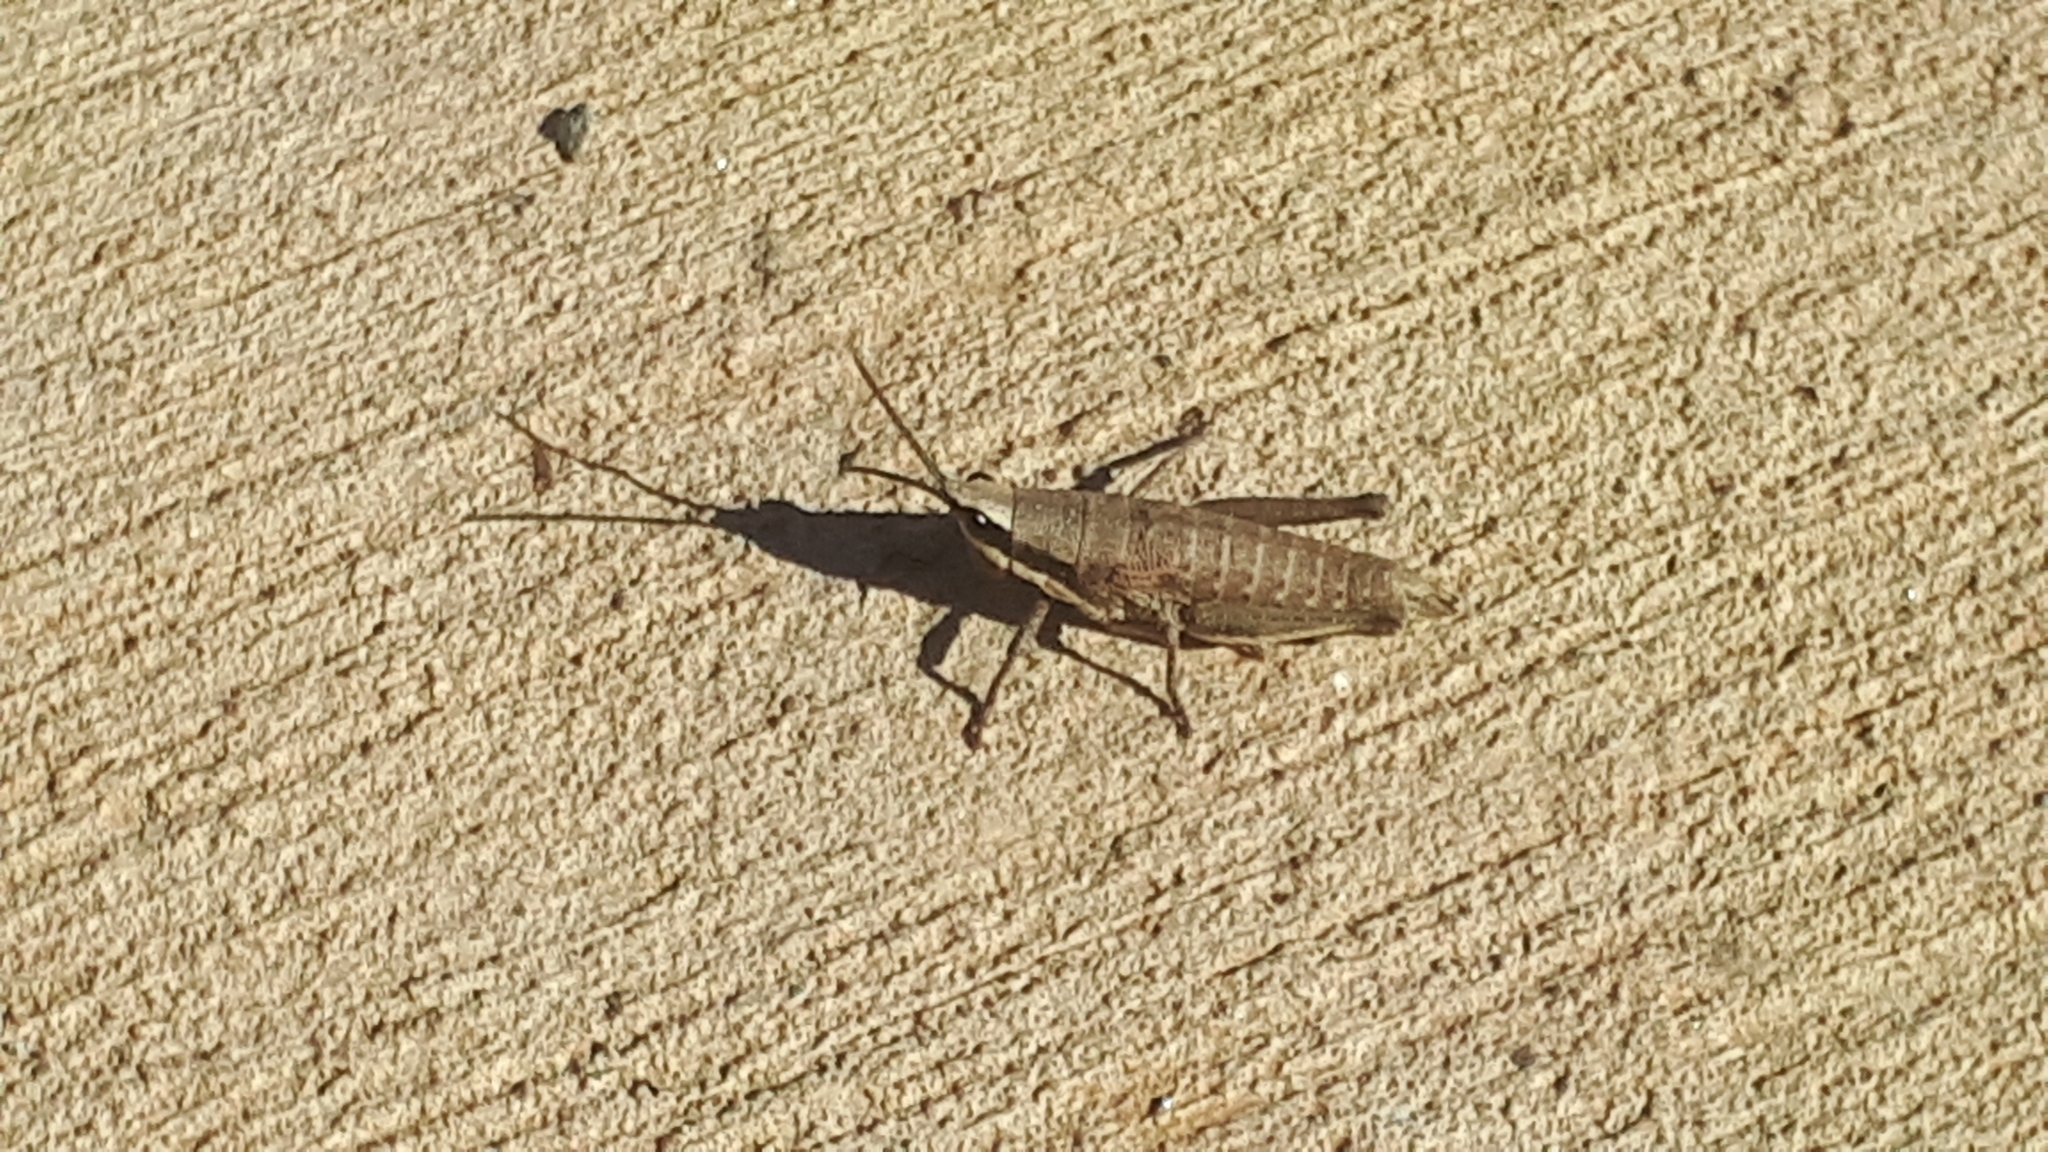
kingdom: Animalia
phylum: Arthropoda
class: Insecta
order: Orthoptera
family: Pyrgomorphidae
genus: Monistria
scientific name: Monistria discrepans
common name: Common pyrgomorph
